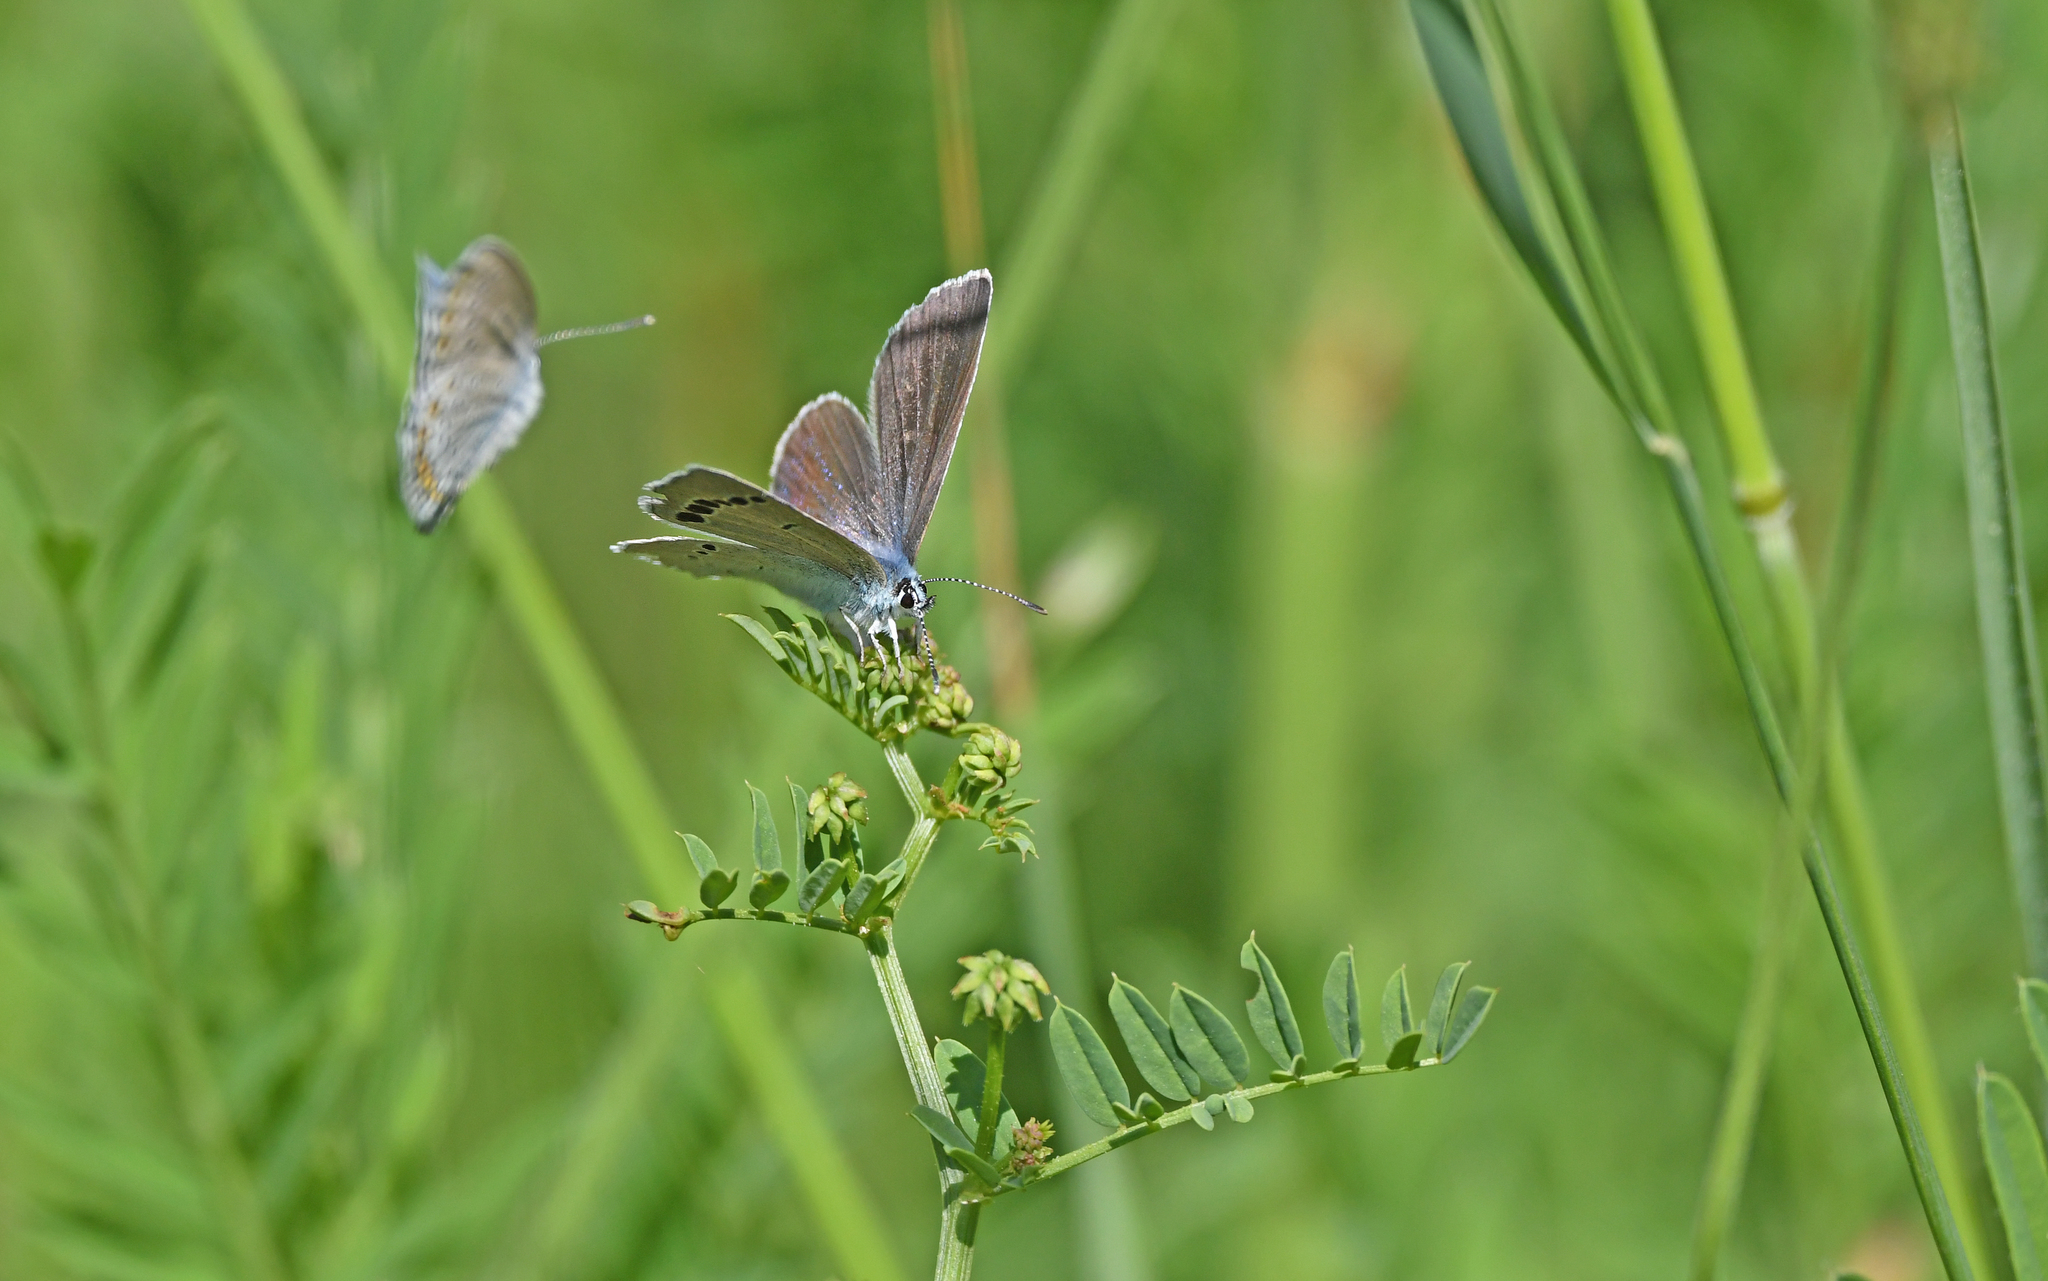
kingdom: Animalia
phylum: Arthropoda
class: Insecta
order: Lepidoptera
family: Lycaenidae
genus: Glaucopsyche
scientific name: Glaucopsyche alexis
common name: Green-underside blue
